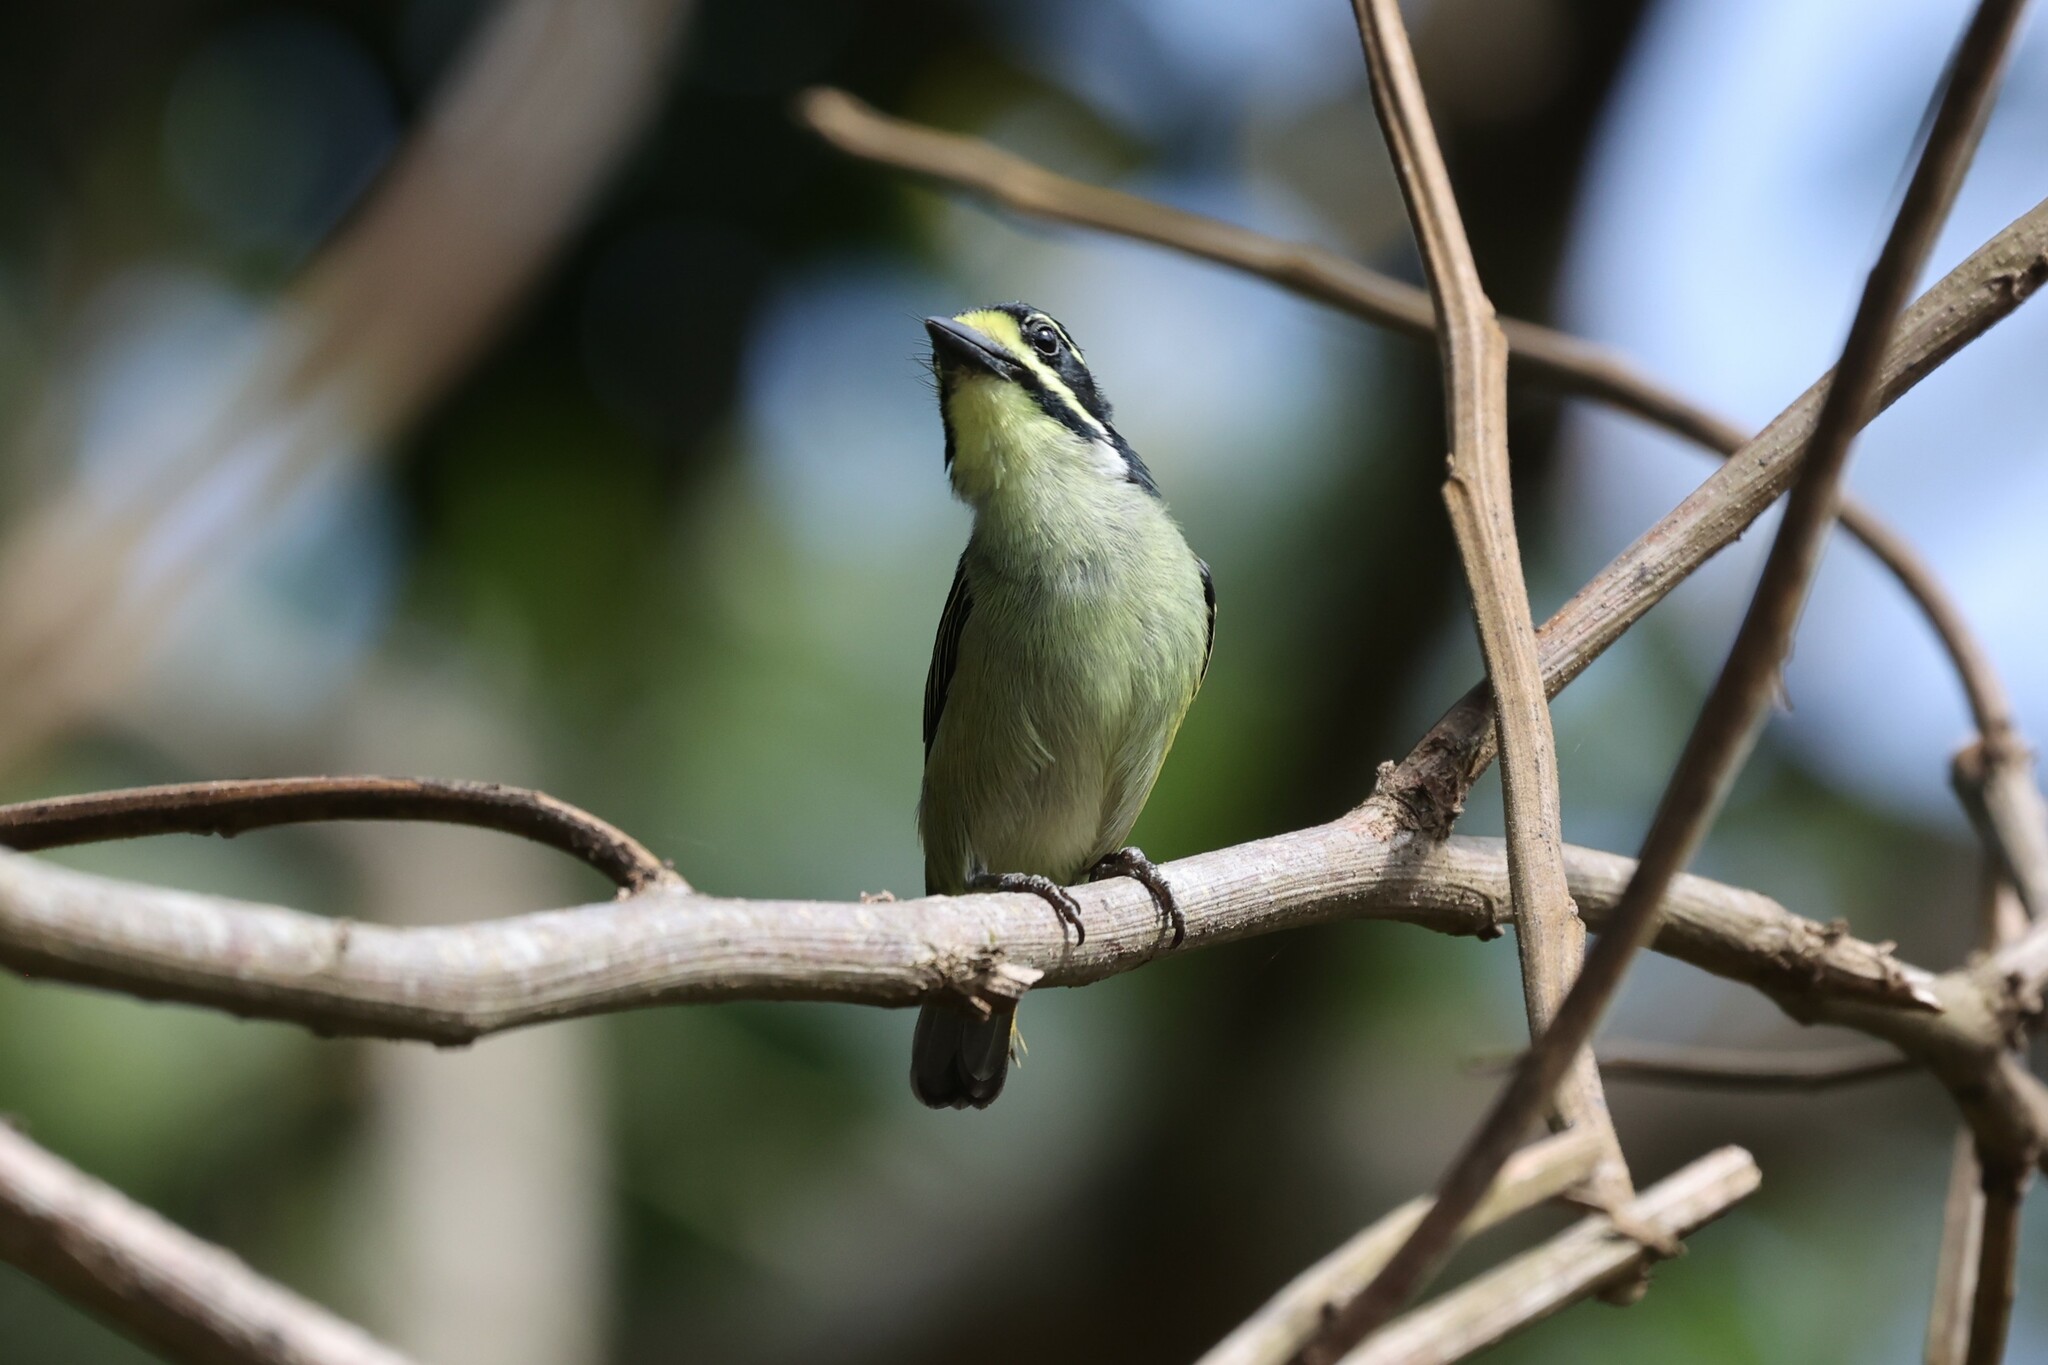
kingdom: Animalia
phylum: Chordata
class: Aves
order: Piciformes
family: Lybiidae
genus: Pogoniulus
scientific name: Pogoniulus subsulphureus
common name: Yellow-throated tinkerbird
